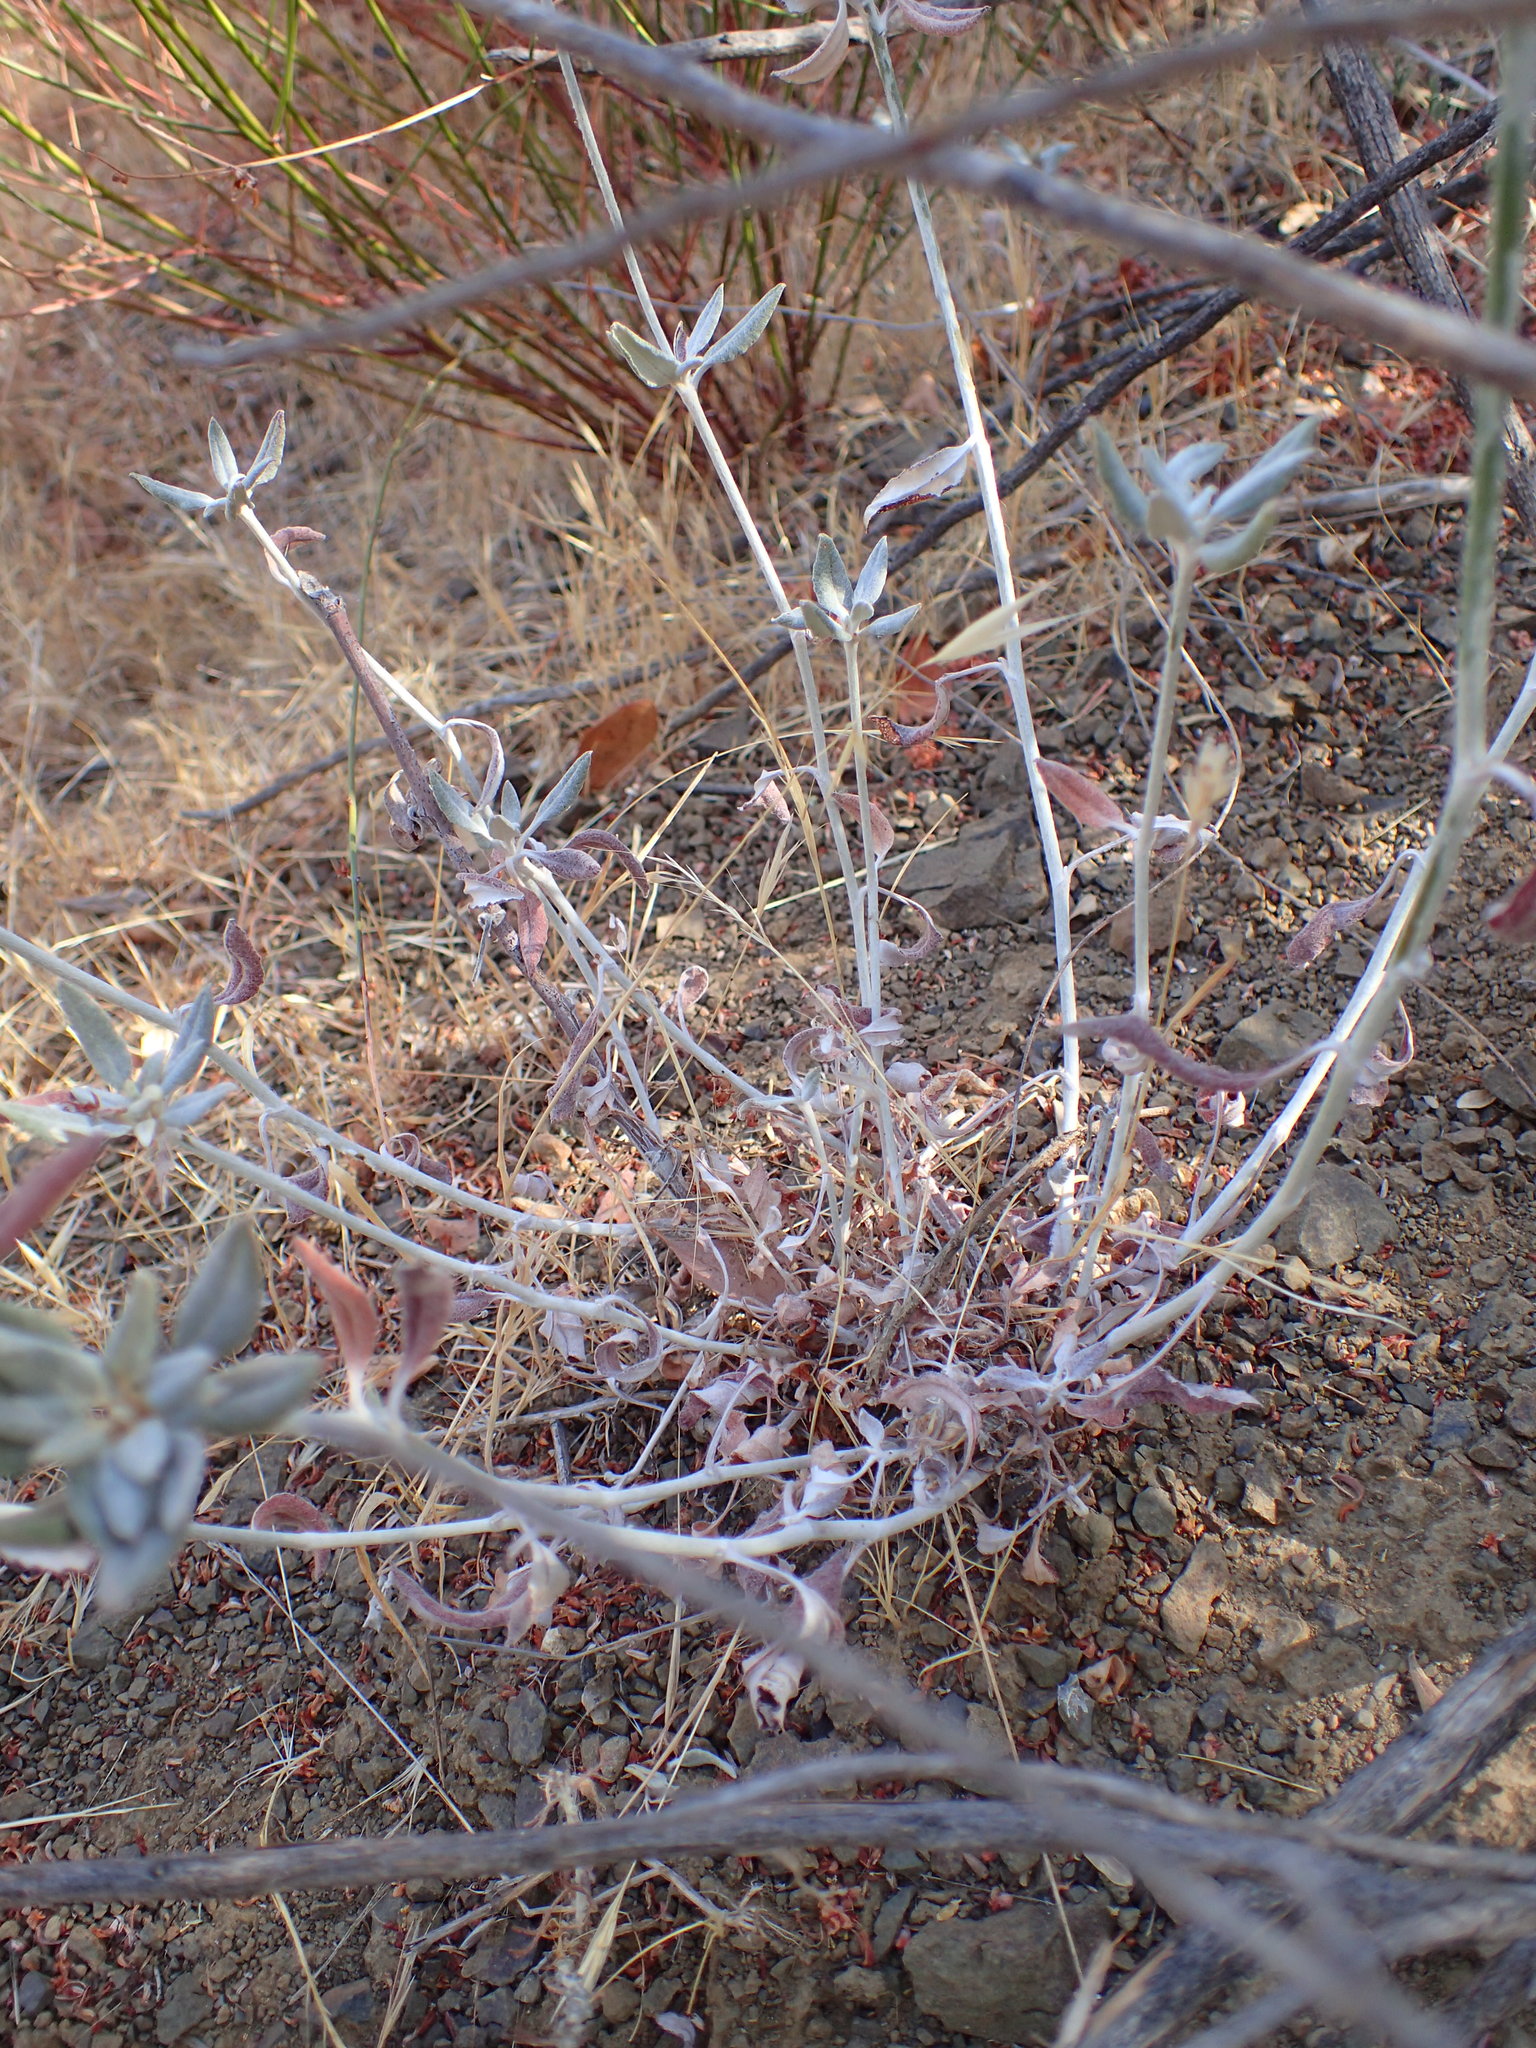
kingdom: Plantae
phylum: Tracheophyta
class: Magnoliopsida
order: Caryophyllales
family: Polygonaceae
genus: Eriogonum
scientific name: Eriogonum elongatum
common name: Long-stem wild buckwheat
